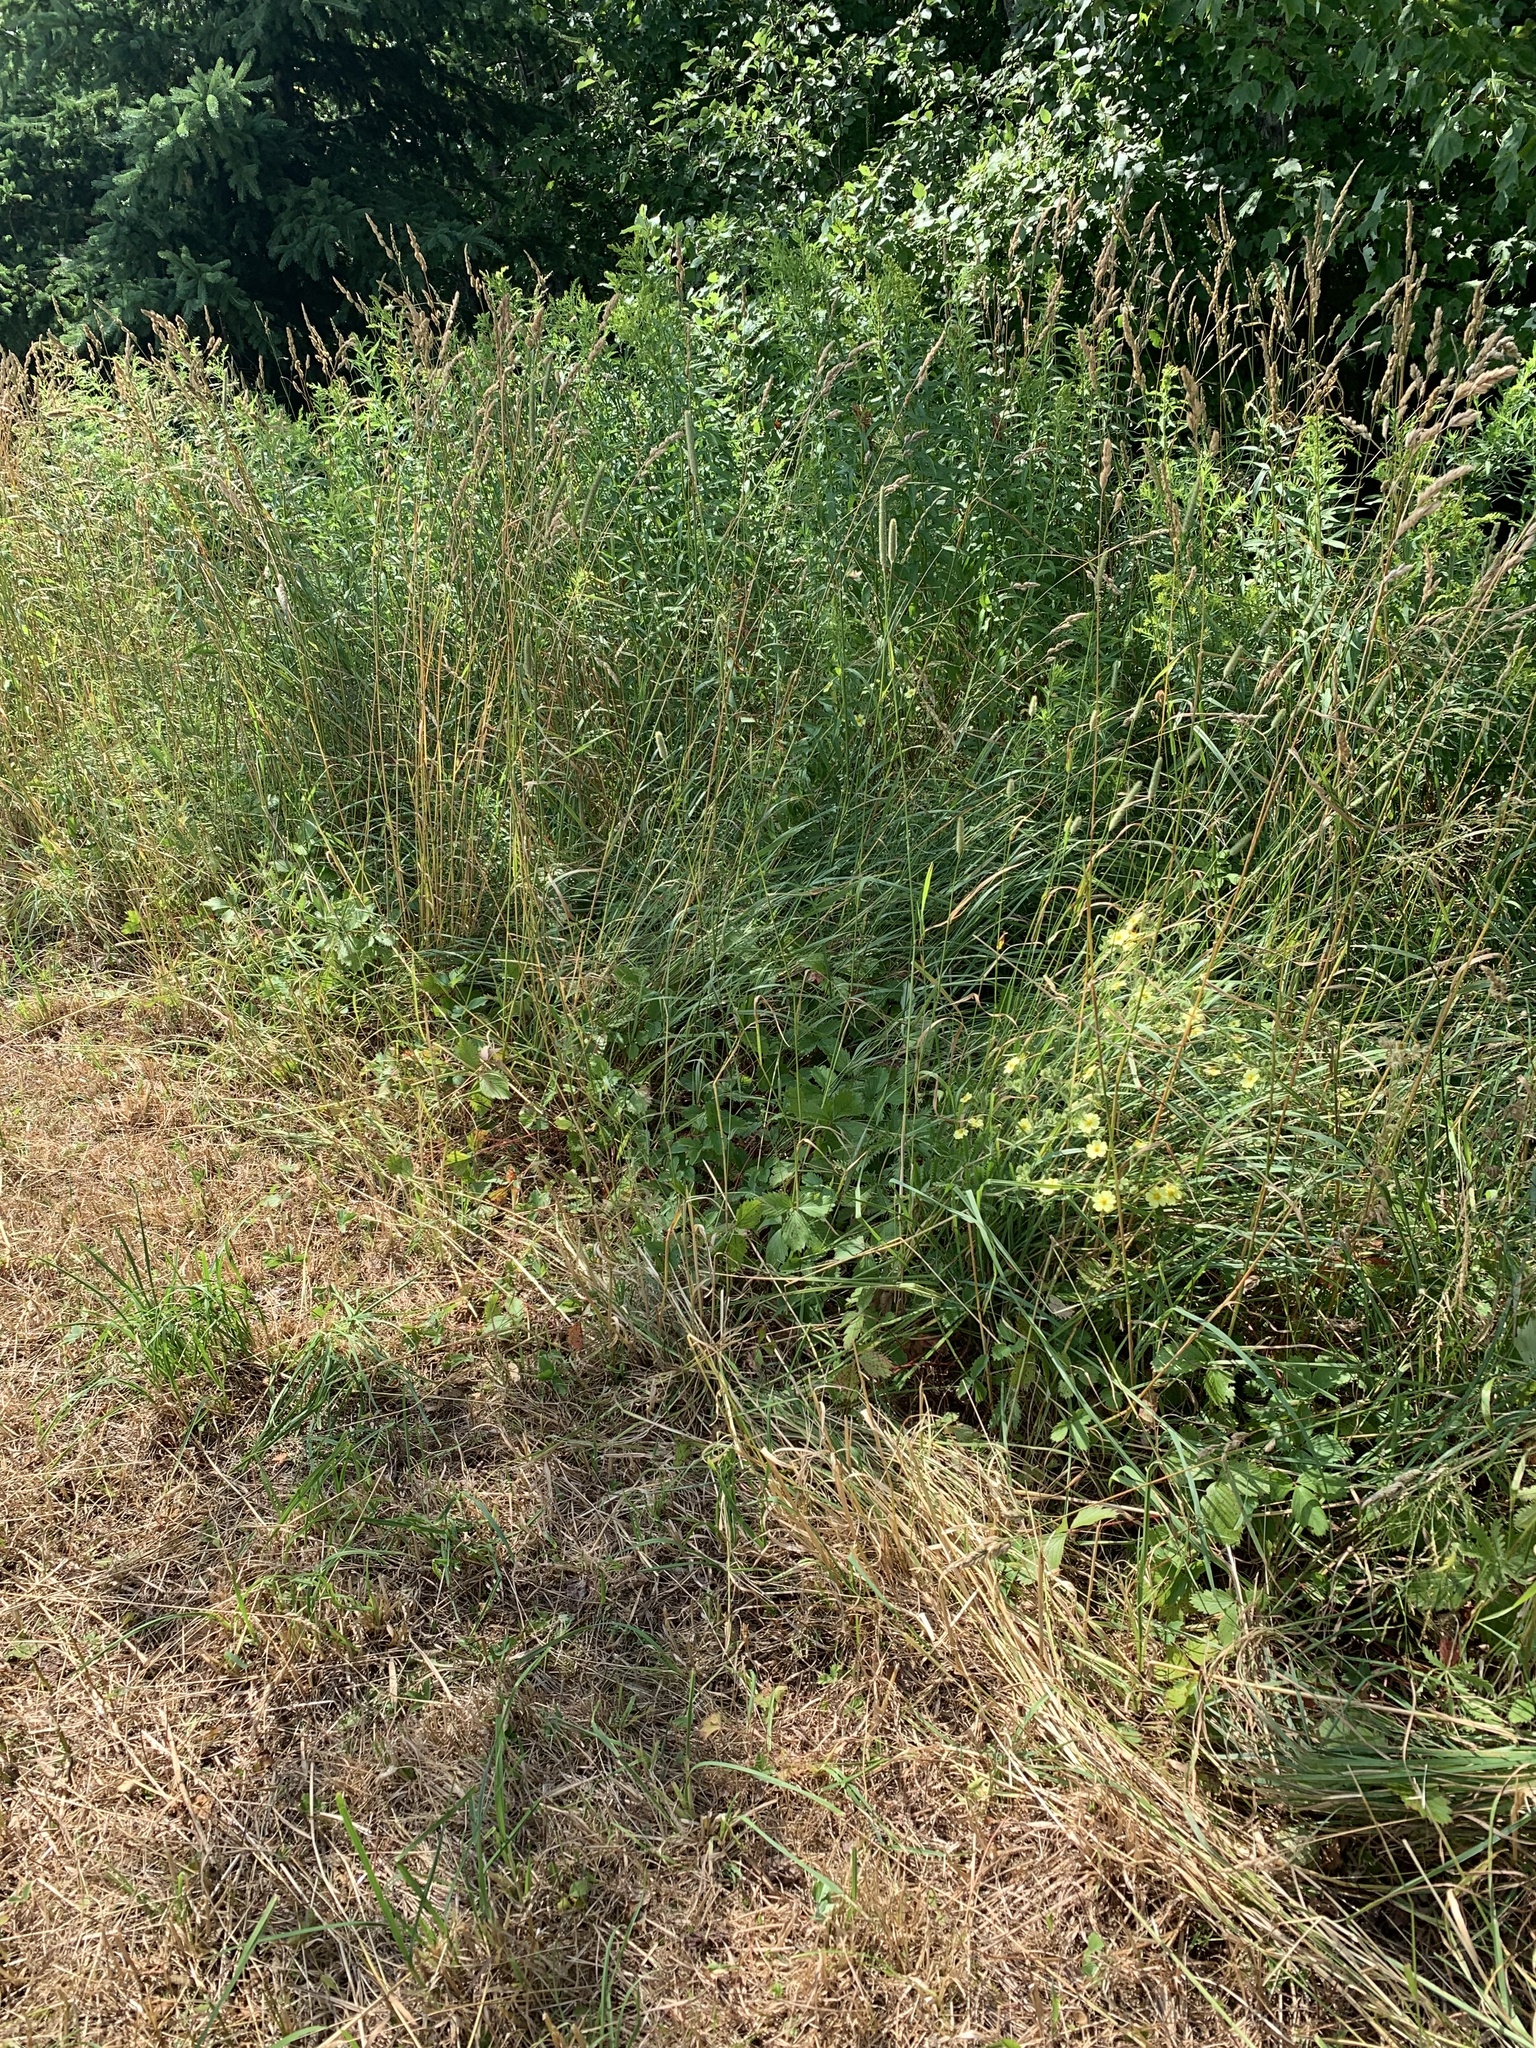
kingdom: Plantae
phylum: Tracheophyta
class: Magnoliopsida
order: Rosales
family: Rosaceae
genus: Potentilla
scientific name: Potentilla recta
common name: Sulphur cinquefoil
